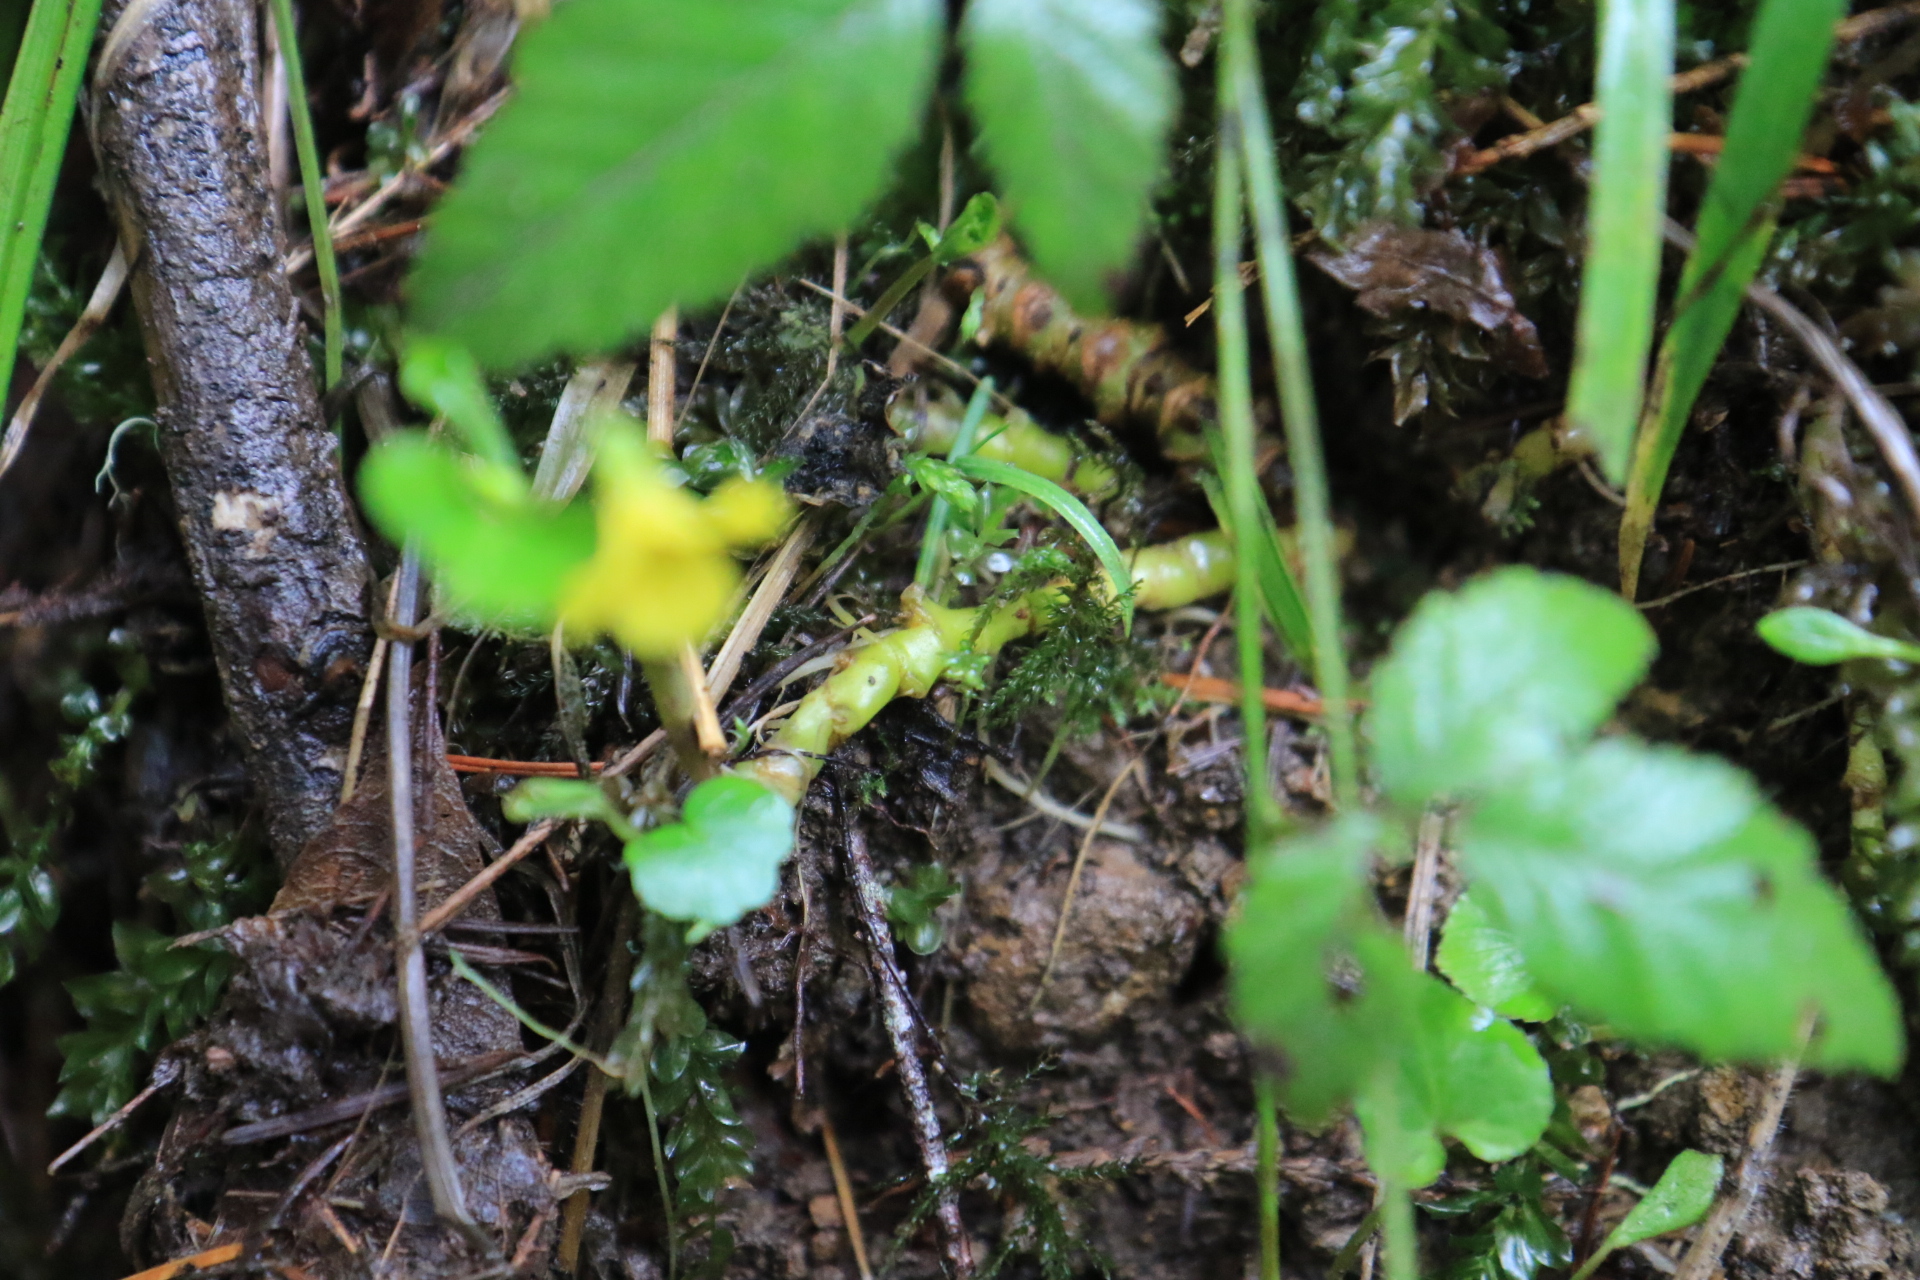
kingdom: Plantae
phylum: Tracheophyta
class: Magnoliopsida
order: Malpighiales
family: Violaceae
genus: Viola
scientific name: Viola glabella
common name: Stream violet
